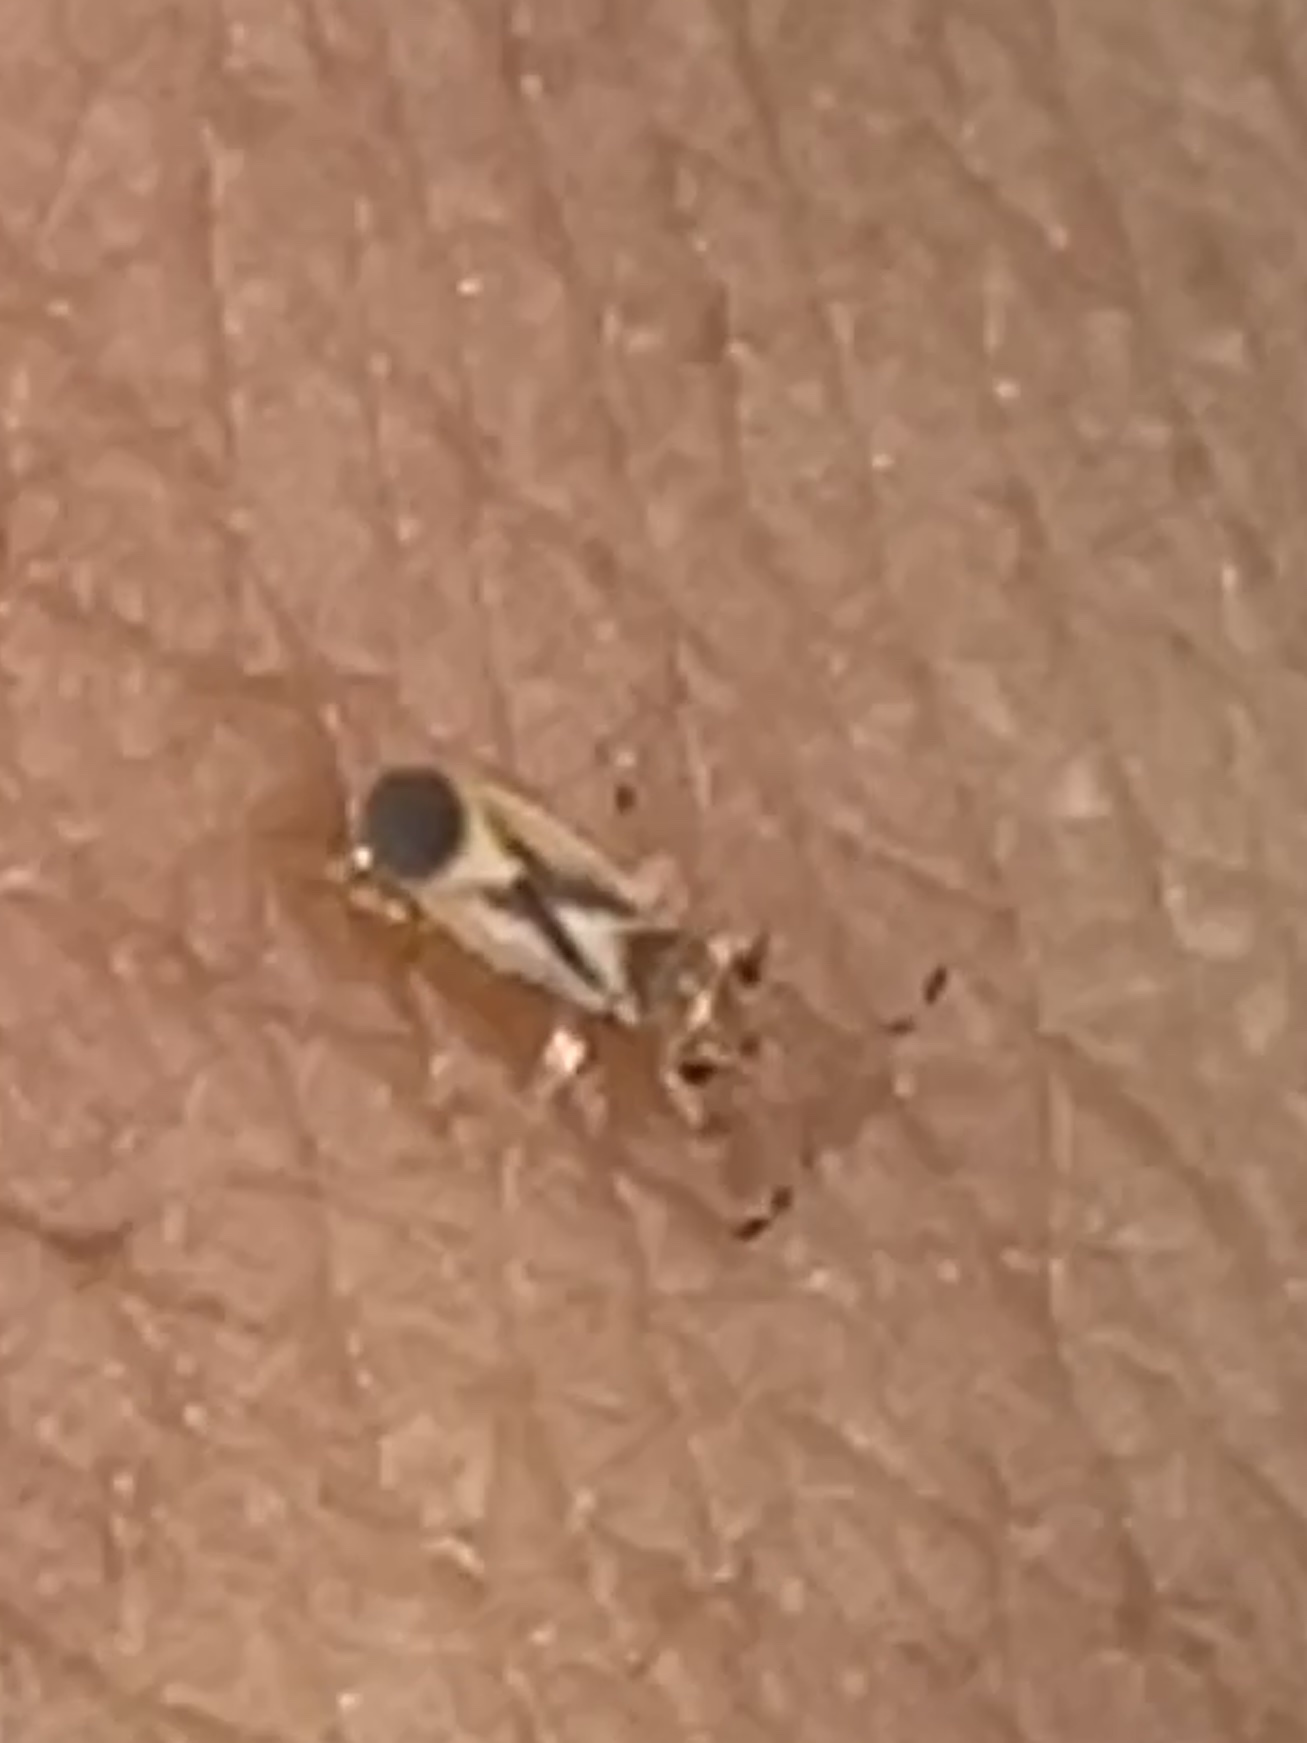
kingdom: Animalia
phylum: Arthropoda
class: Insecta
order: Hemiptera
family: Thaumastocoridae
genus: Thaumastocoris
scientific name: Thaumastocoris peregrinus
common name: Bronze bug
